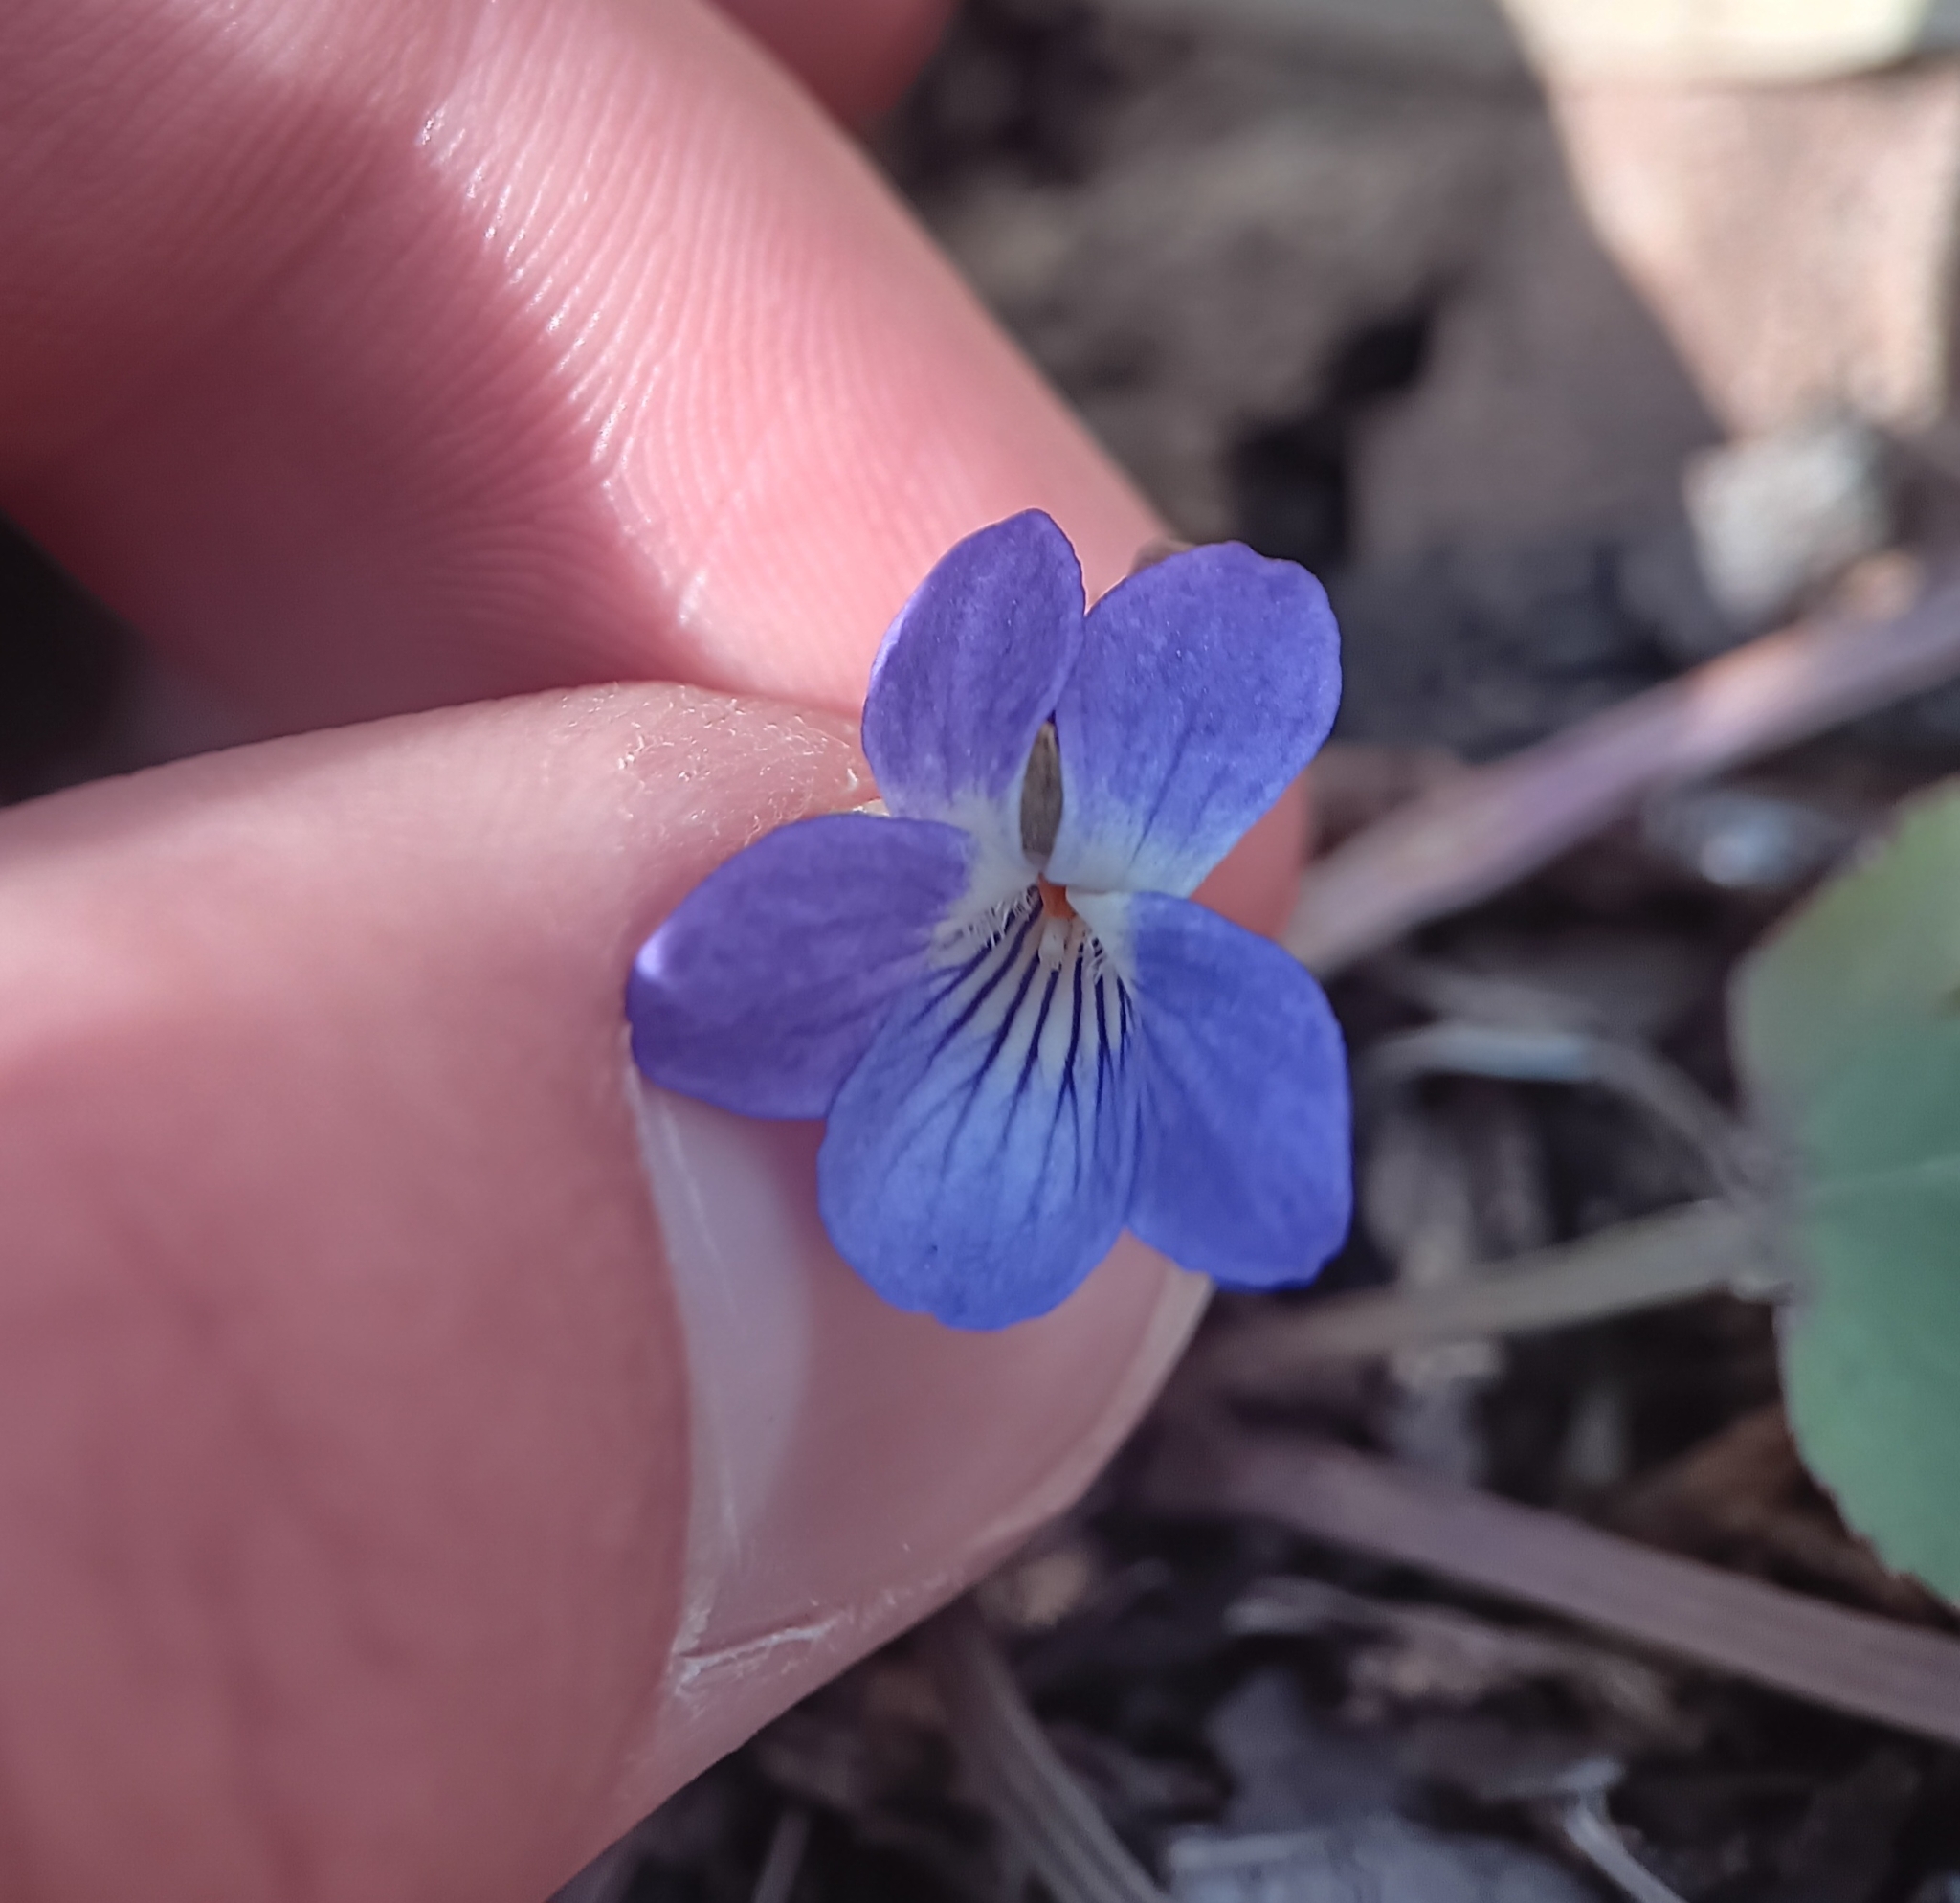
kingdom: Plantae
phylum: Tracheophyta
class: Magnoliopsida
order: Malpighiales
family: Violaceae
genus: Viola
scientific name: Viola umbraticola
